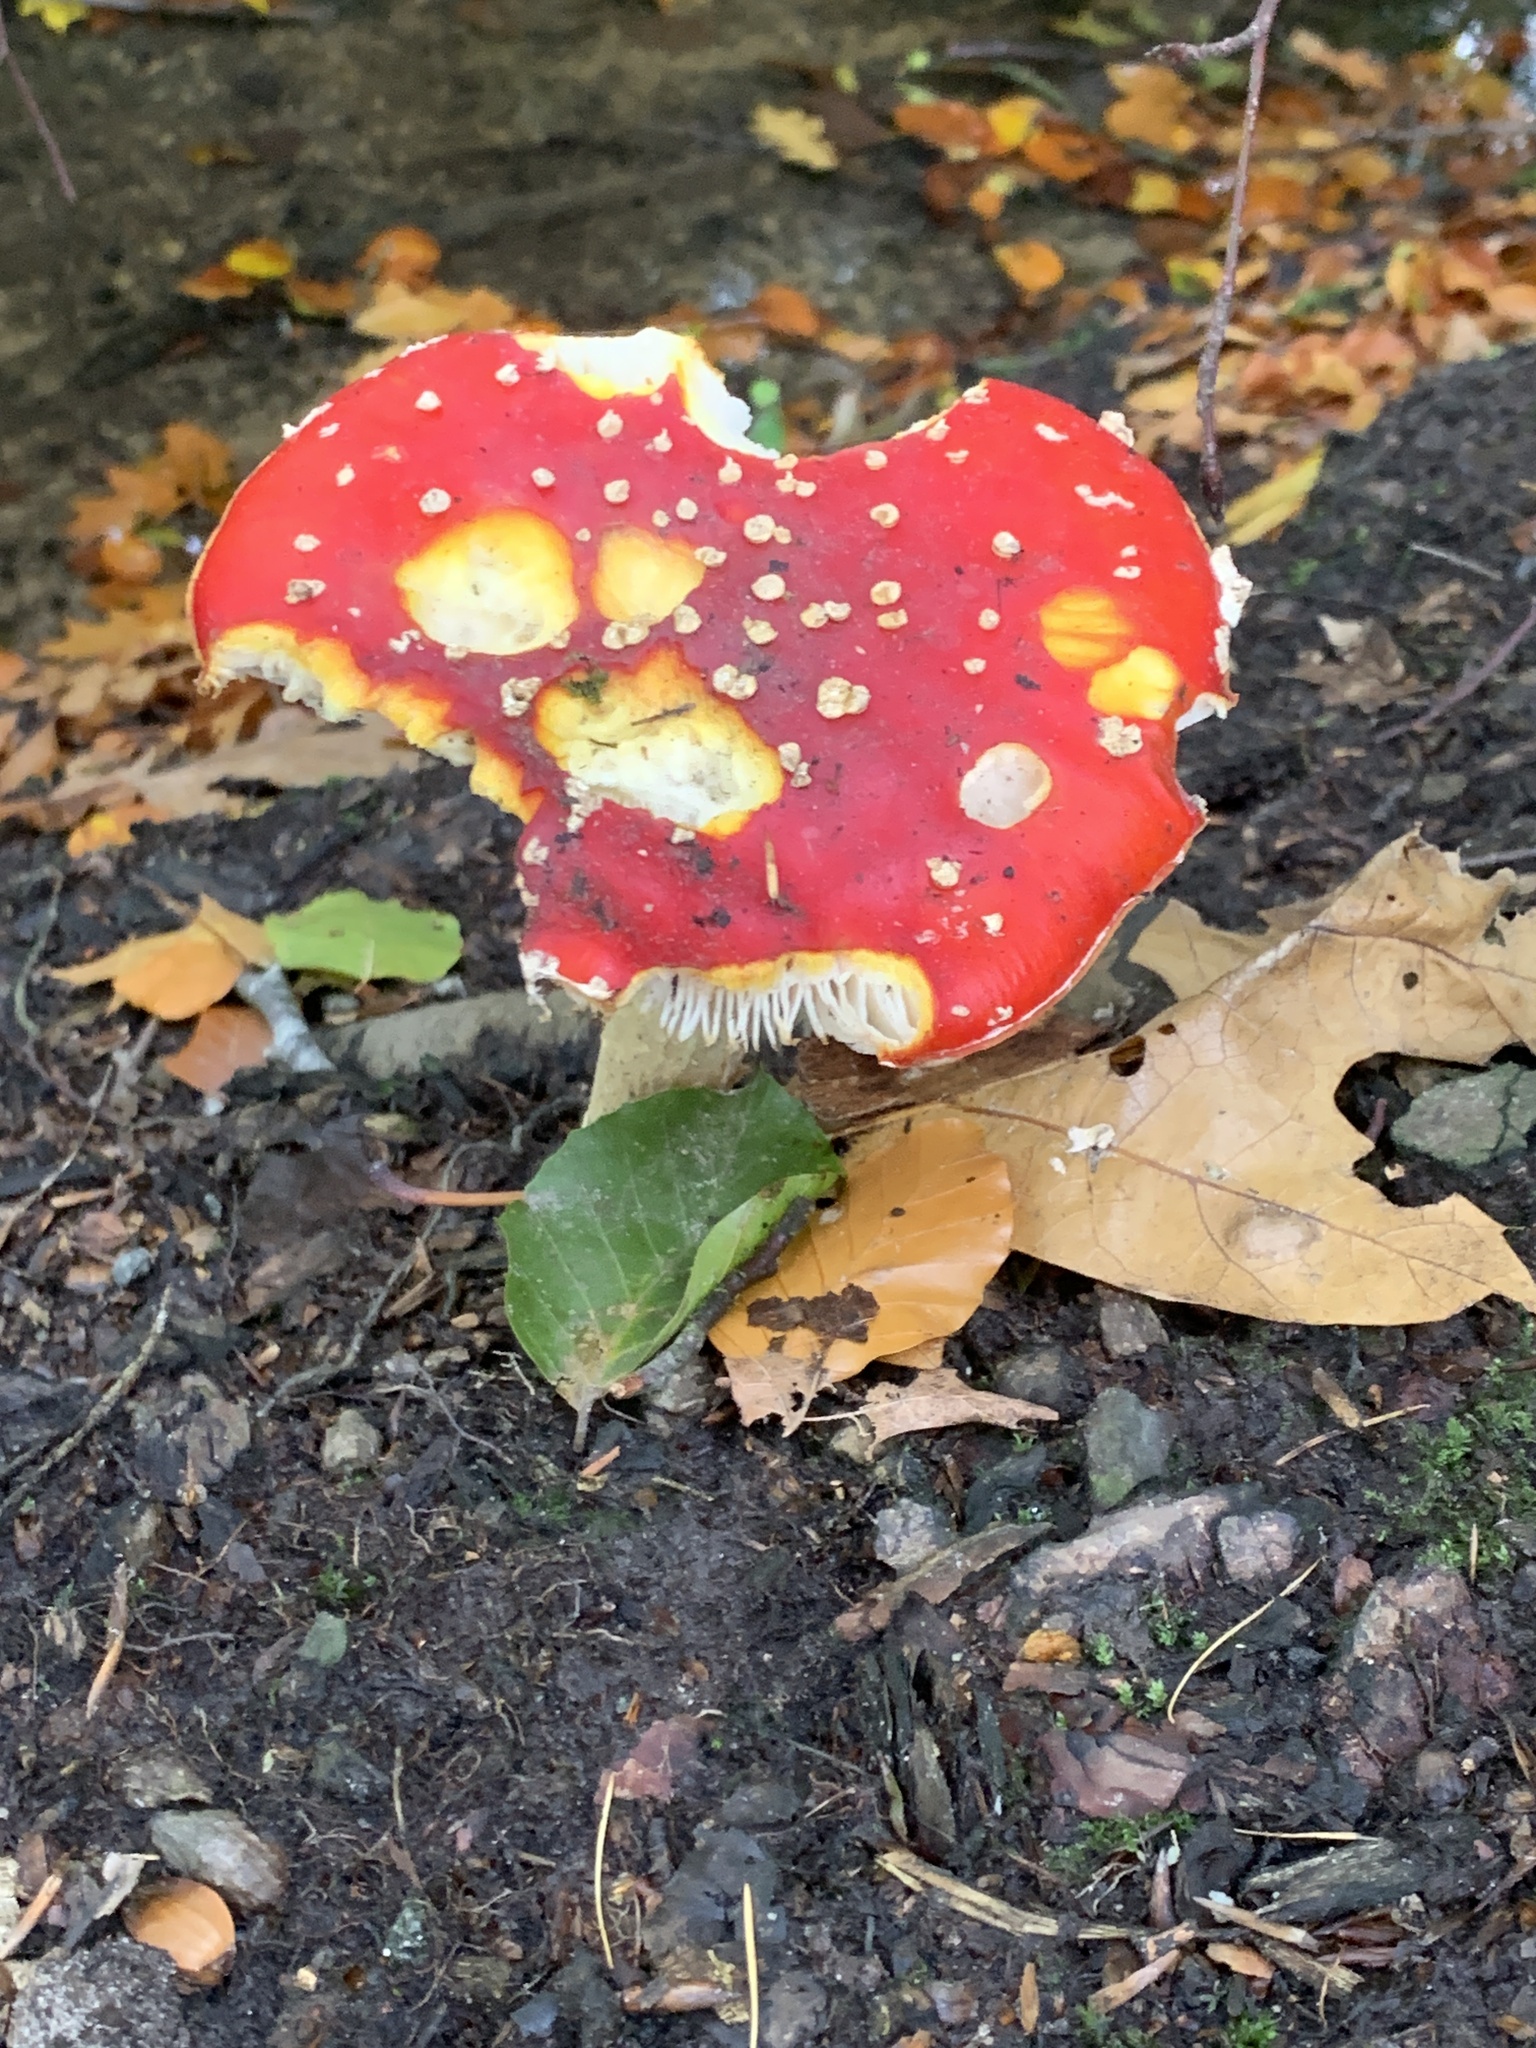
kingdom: Fungi
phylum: Basidiomycota
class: Agaricomycetes
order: Agaricales
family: Amanitaceae
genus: Amanita
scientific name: Amanita muscaria
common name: Fly agaric
